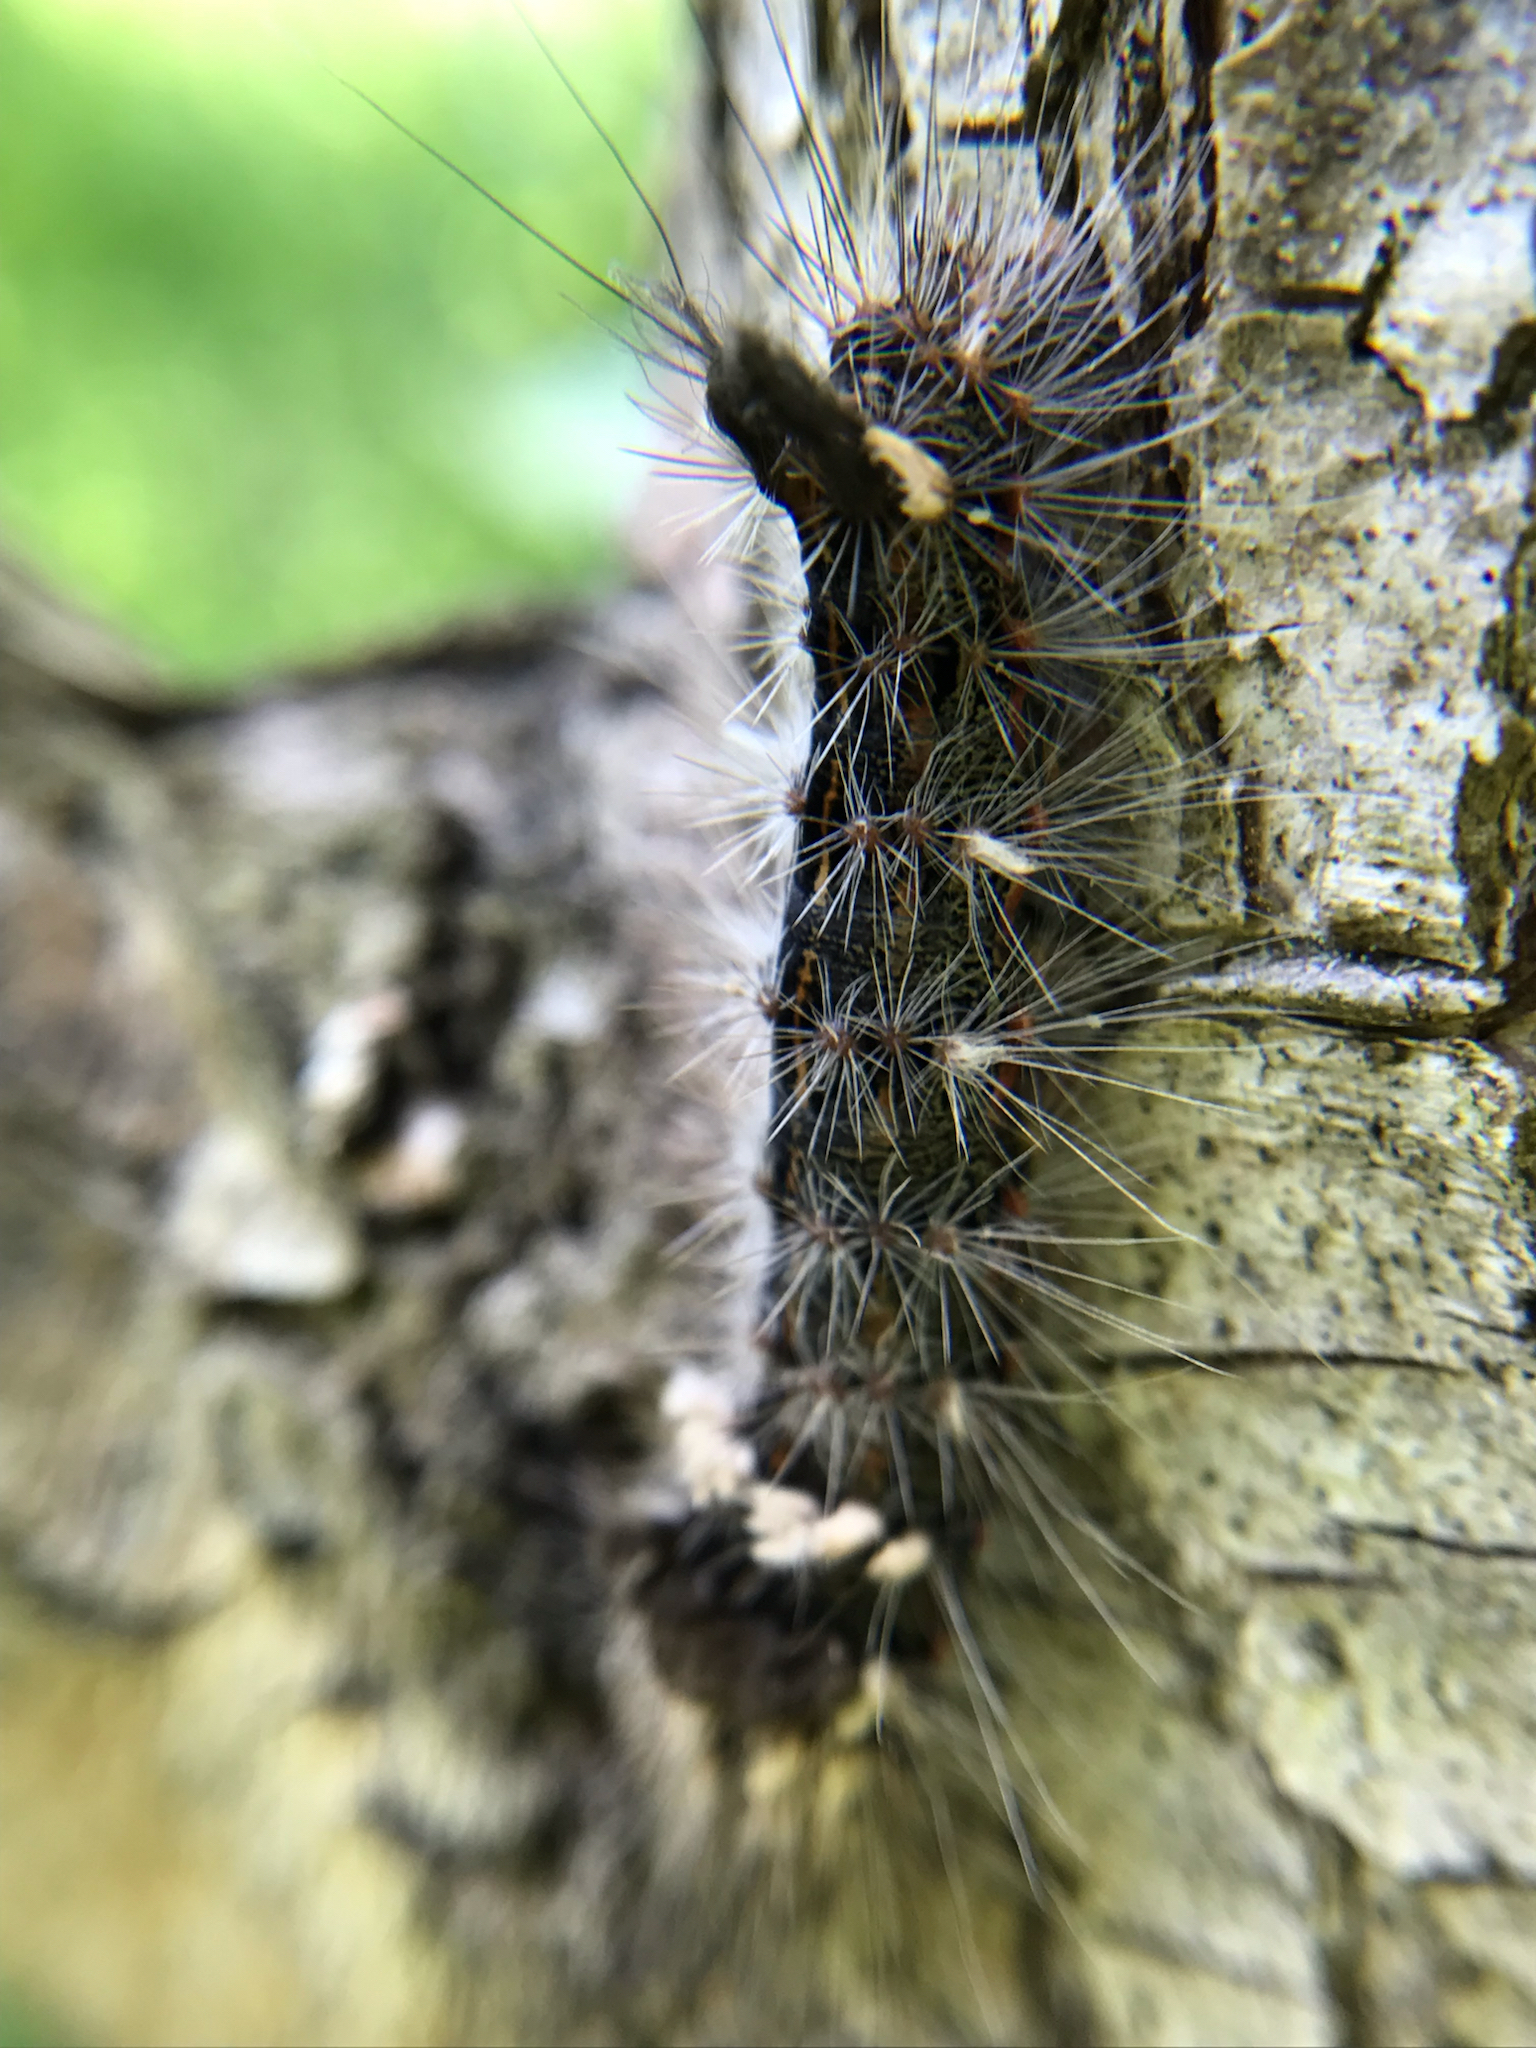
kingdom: Animalia
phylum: Arthropoda
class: Insecta
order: Lepidoptera
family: Noctuidae
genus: Acronicta
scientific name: Acronicta impleta
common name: Powdered dagger
